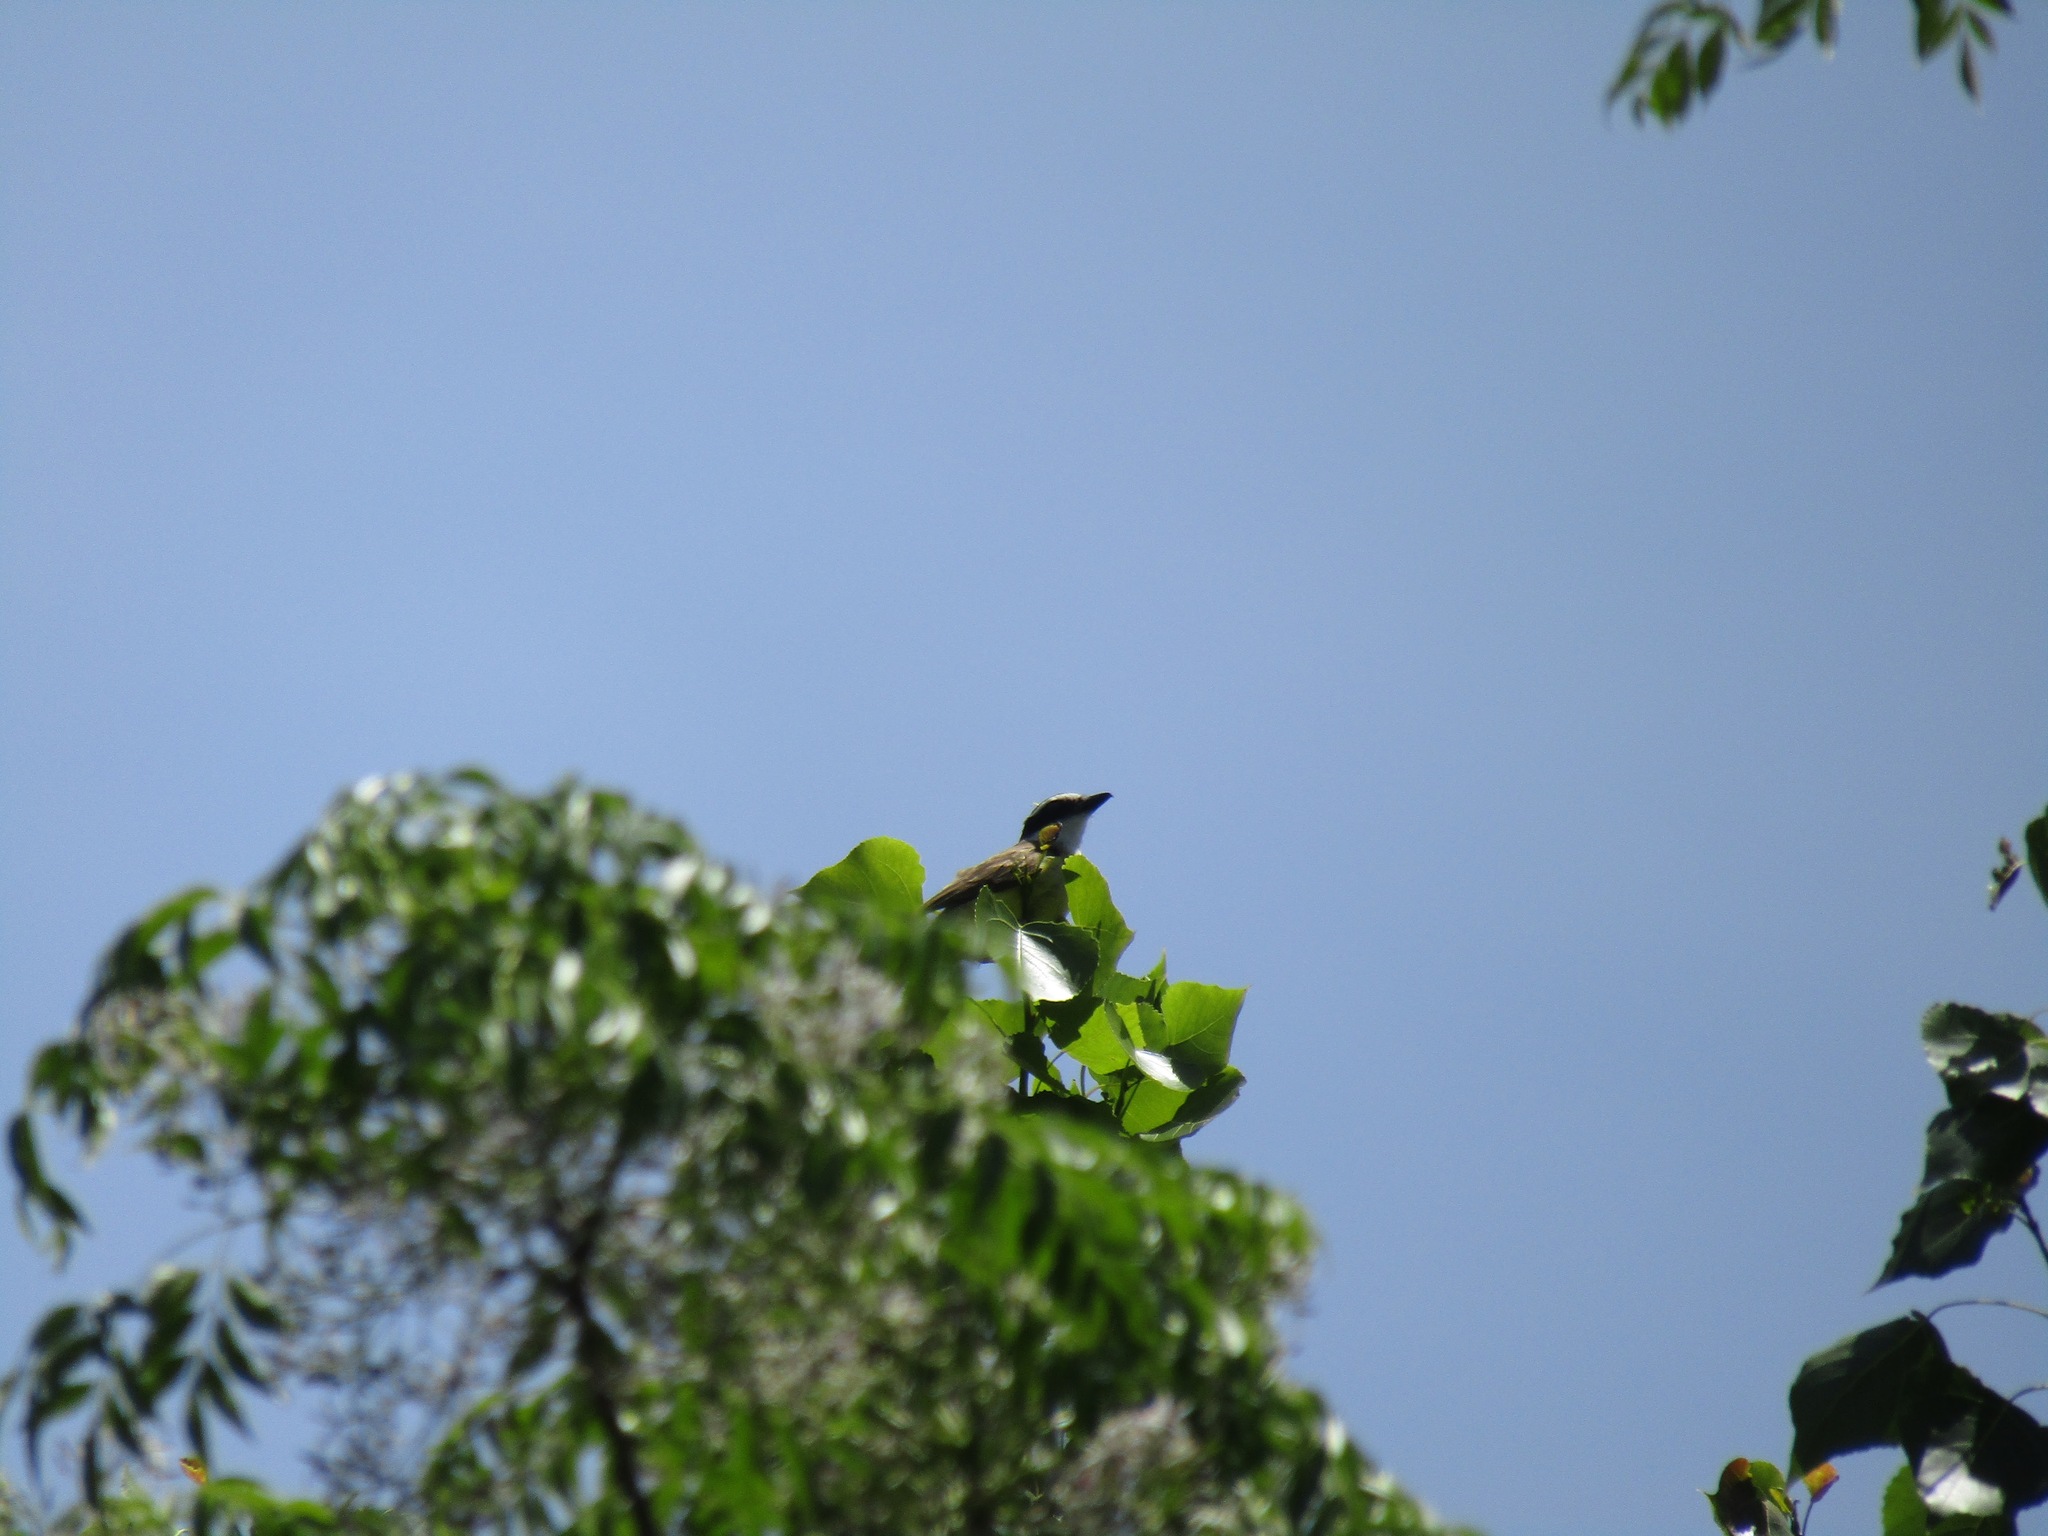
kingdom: Animalia
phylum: Chordata
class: Aves
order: Passeriformes
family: Tyrannidae
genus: Pitangus
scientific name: Pitangus sulphuratus
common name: Great kiskadee
